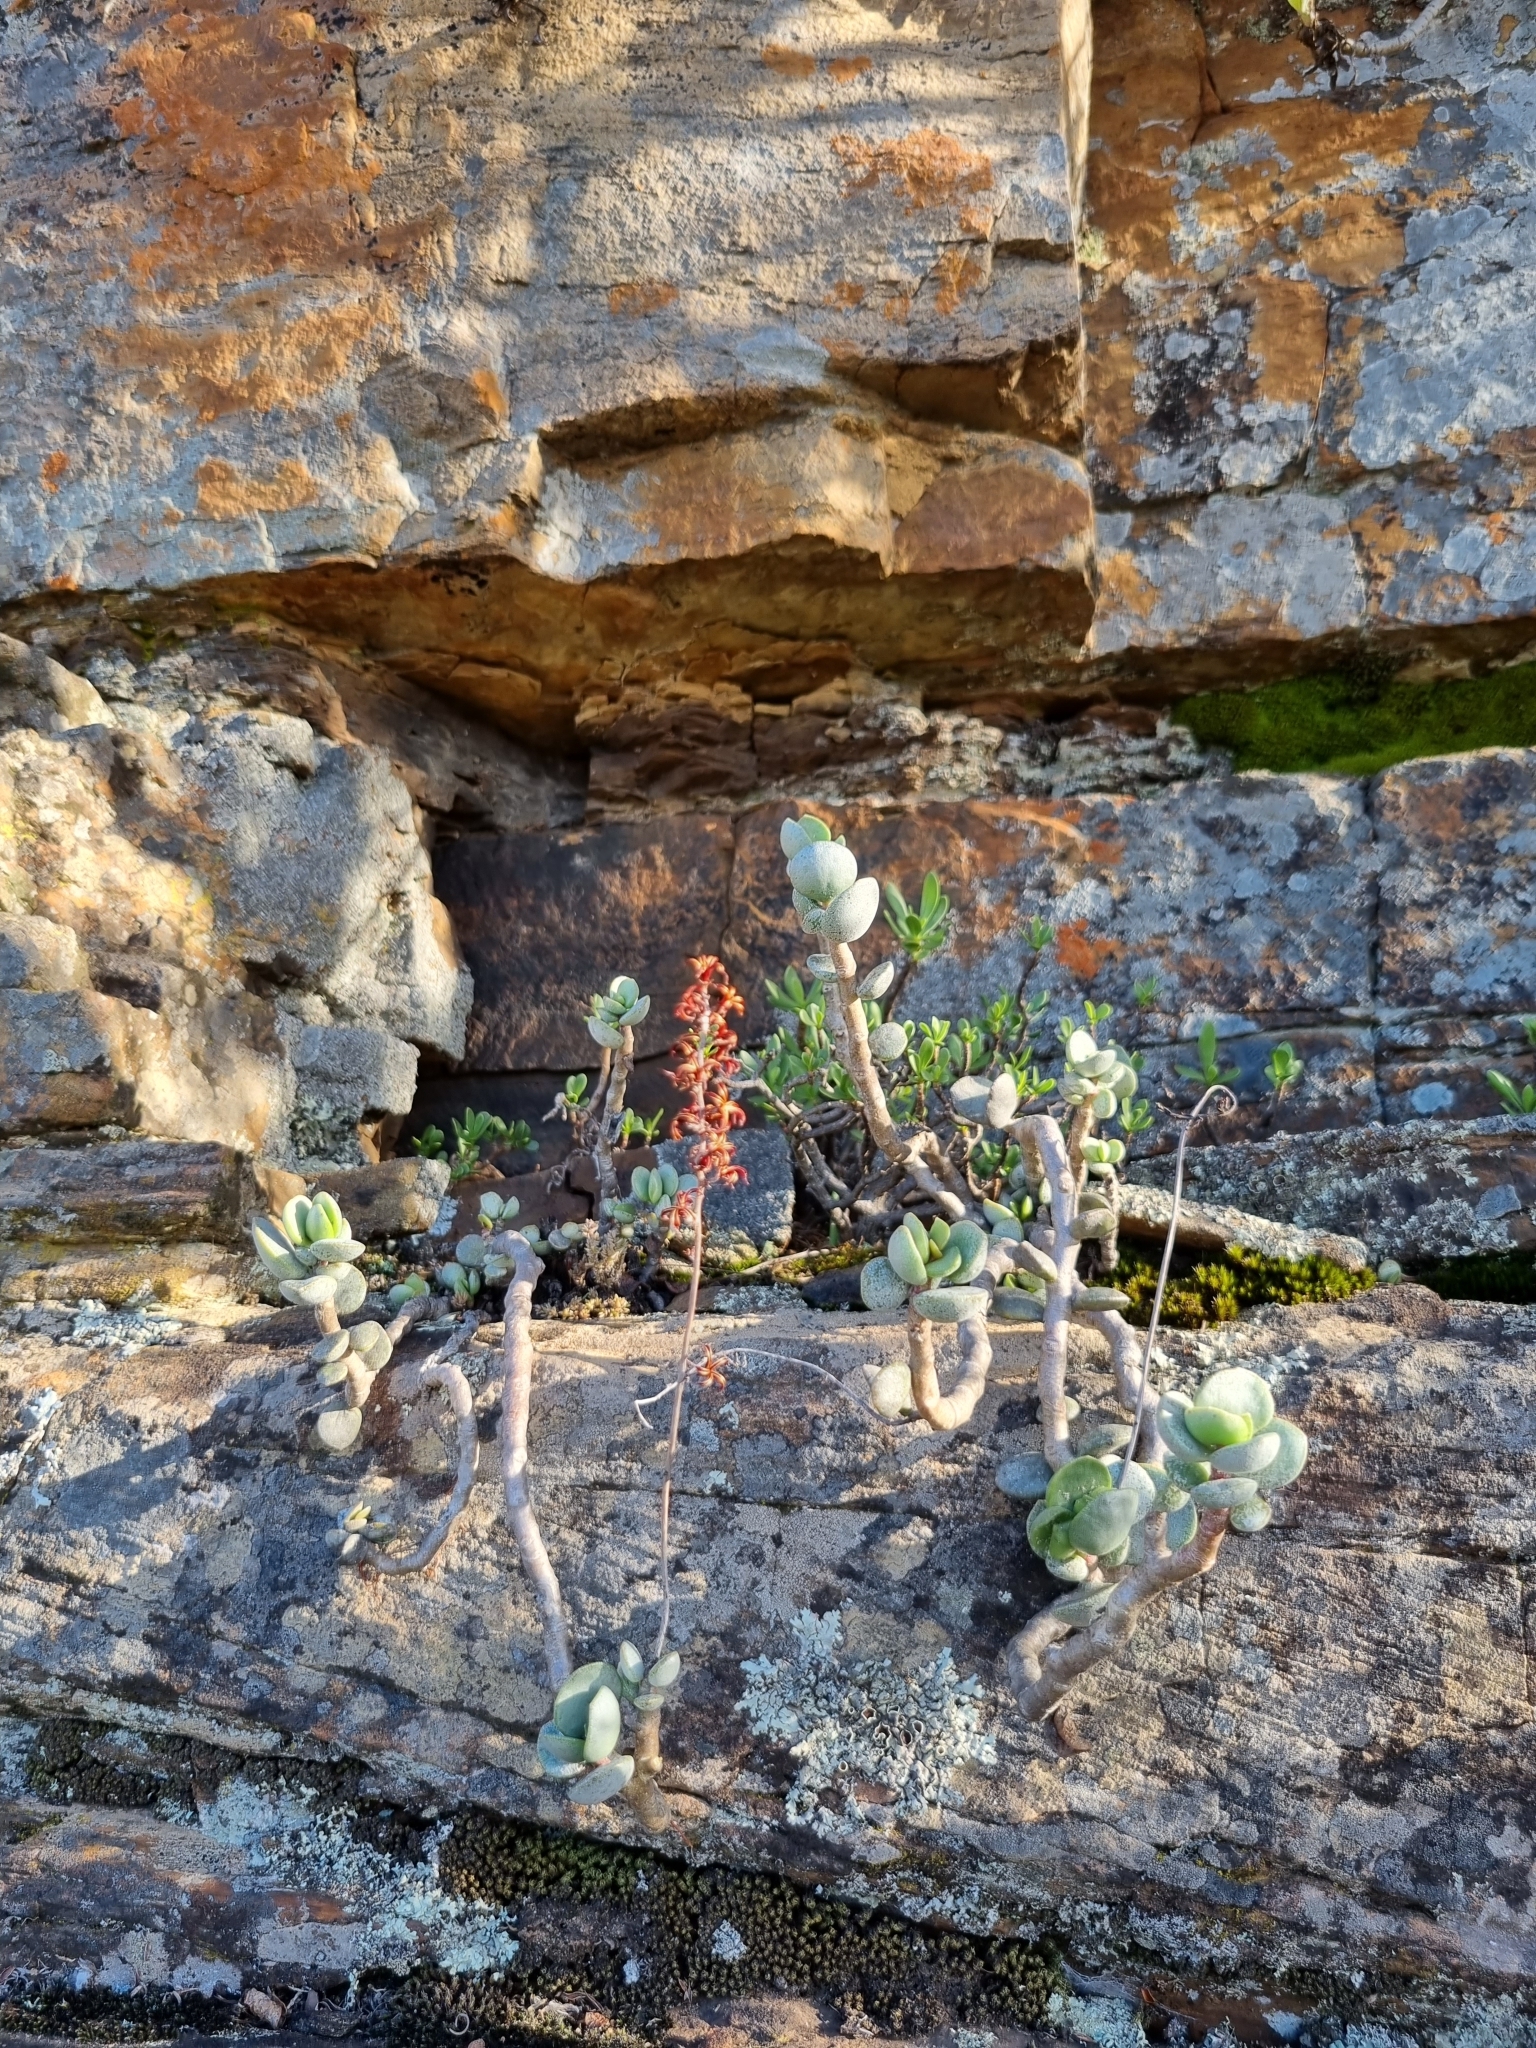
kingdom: Plantae
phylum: Tracheophyta
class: Magnoliopsida
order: Saxifragales
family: Crassulaceae
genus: Adromischus
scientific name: Adromischus hemisphaericus
